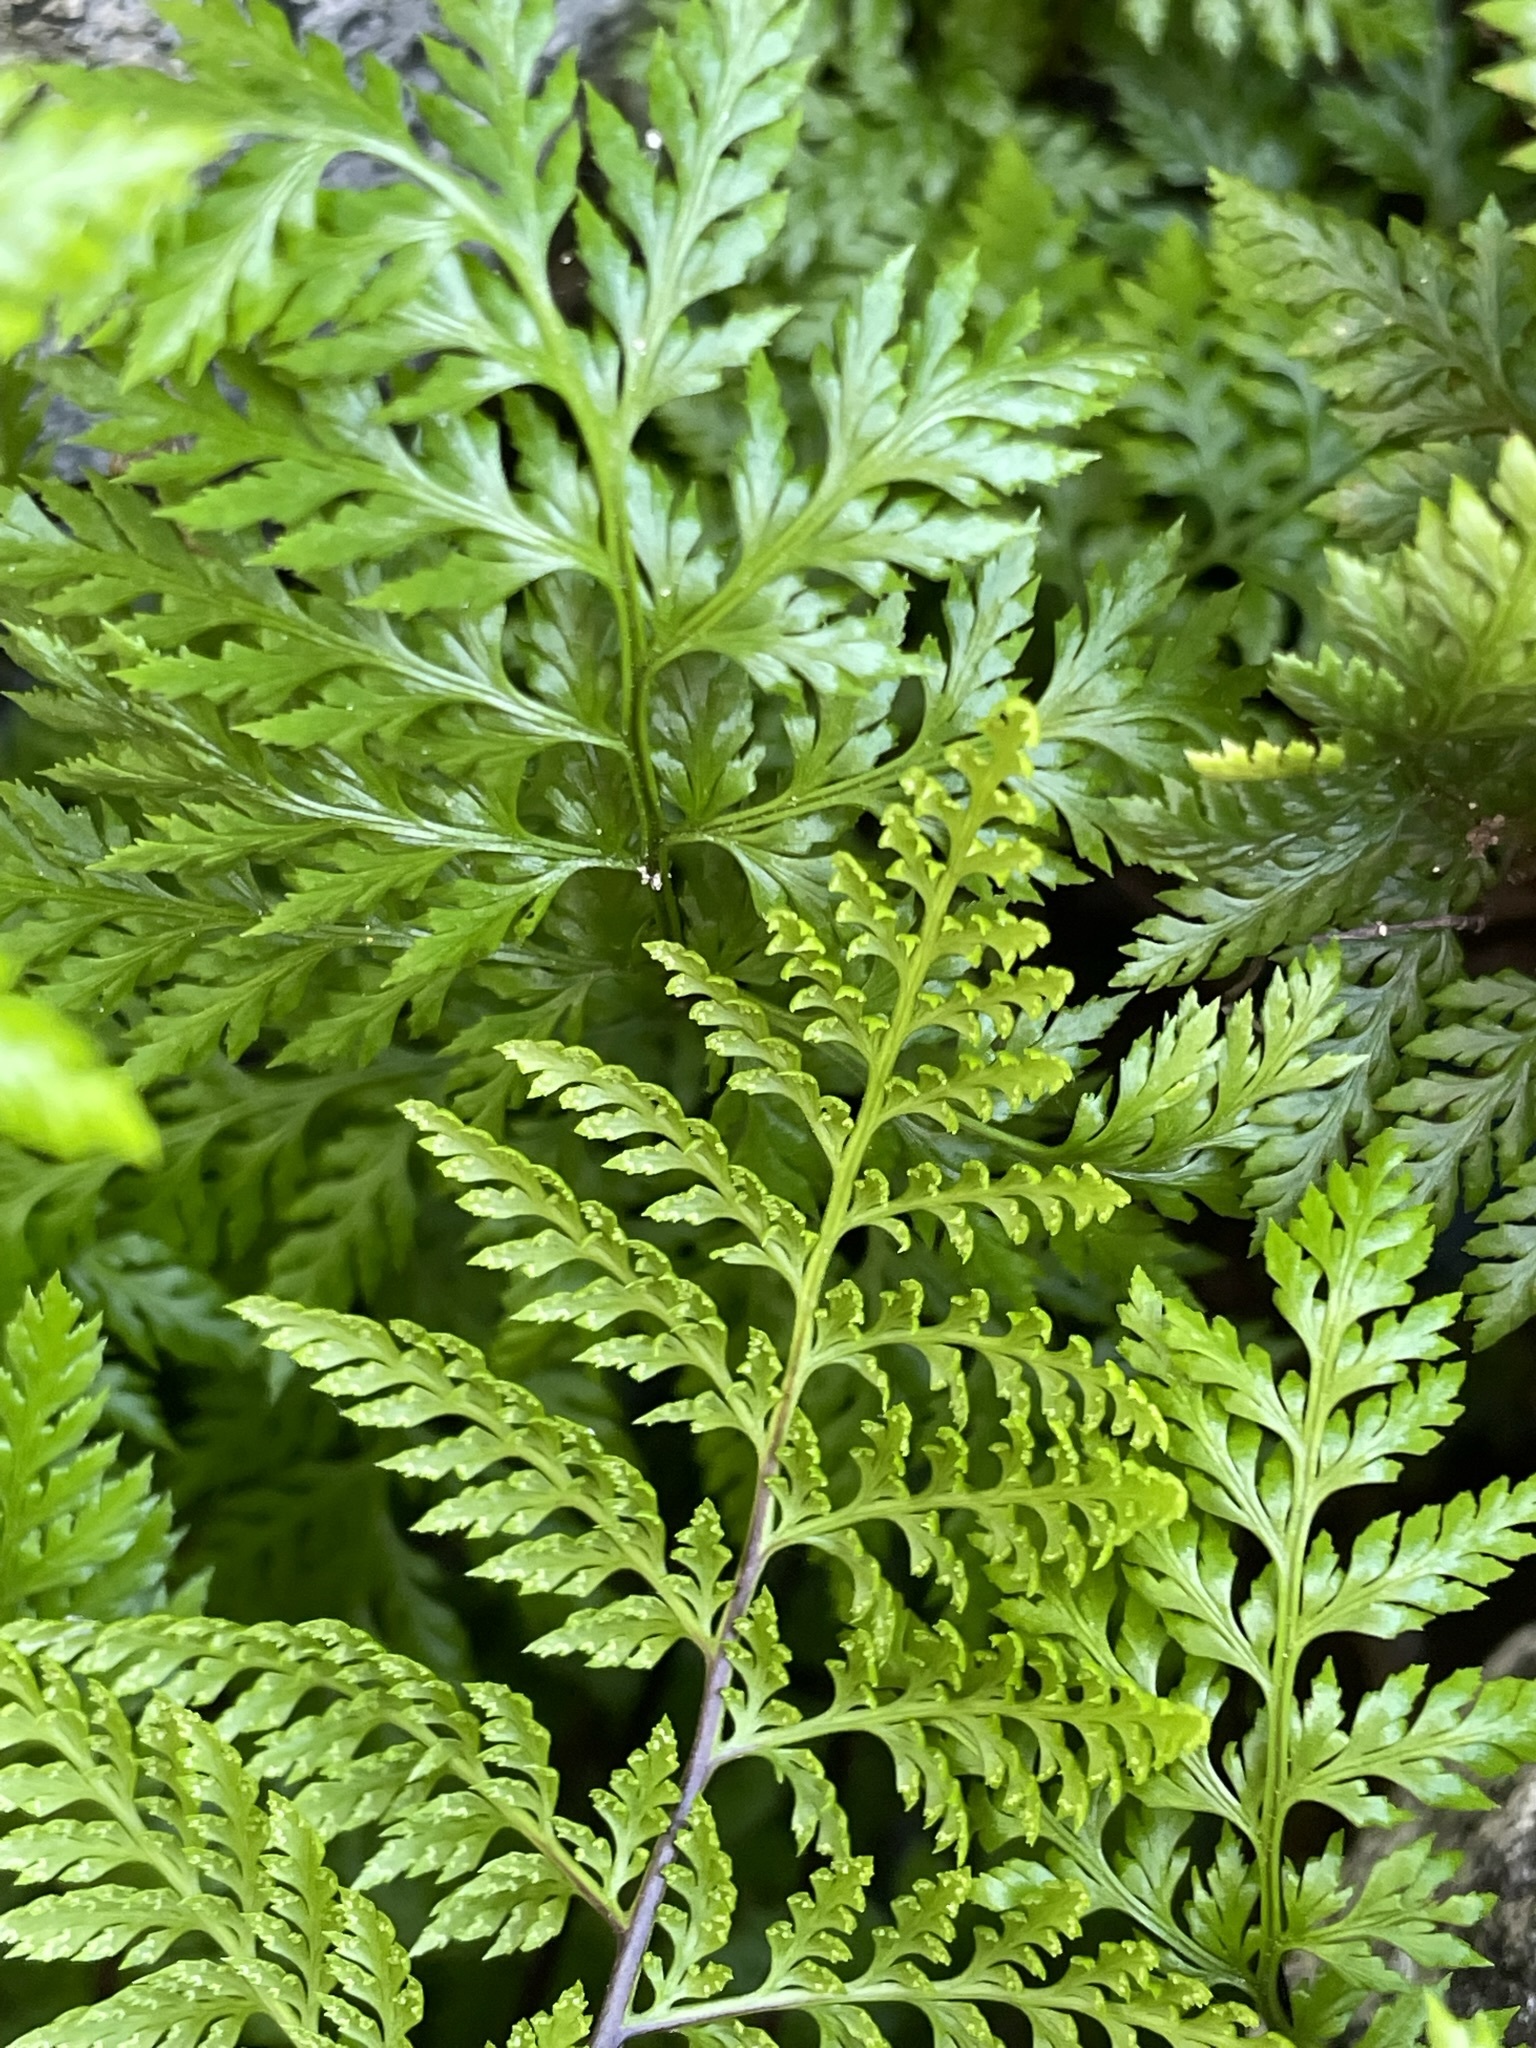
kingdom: Plantae
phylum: Tracheophyta
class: Polypodiopsida
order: Polypodiales
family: Pteridaceae
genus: Aspidotis
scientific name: Aspidotis californica
